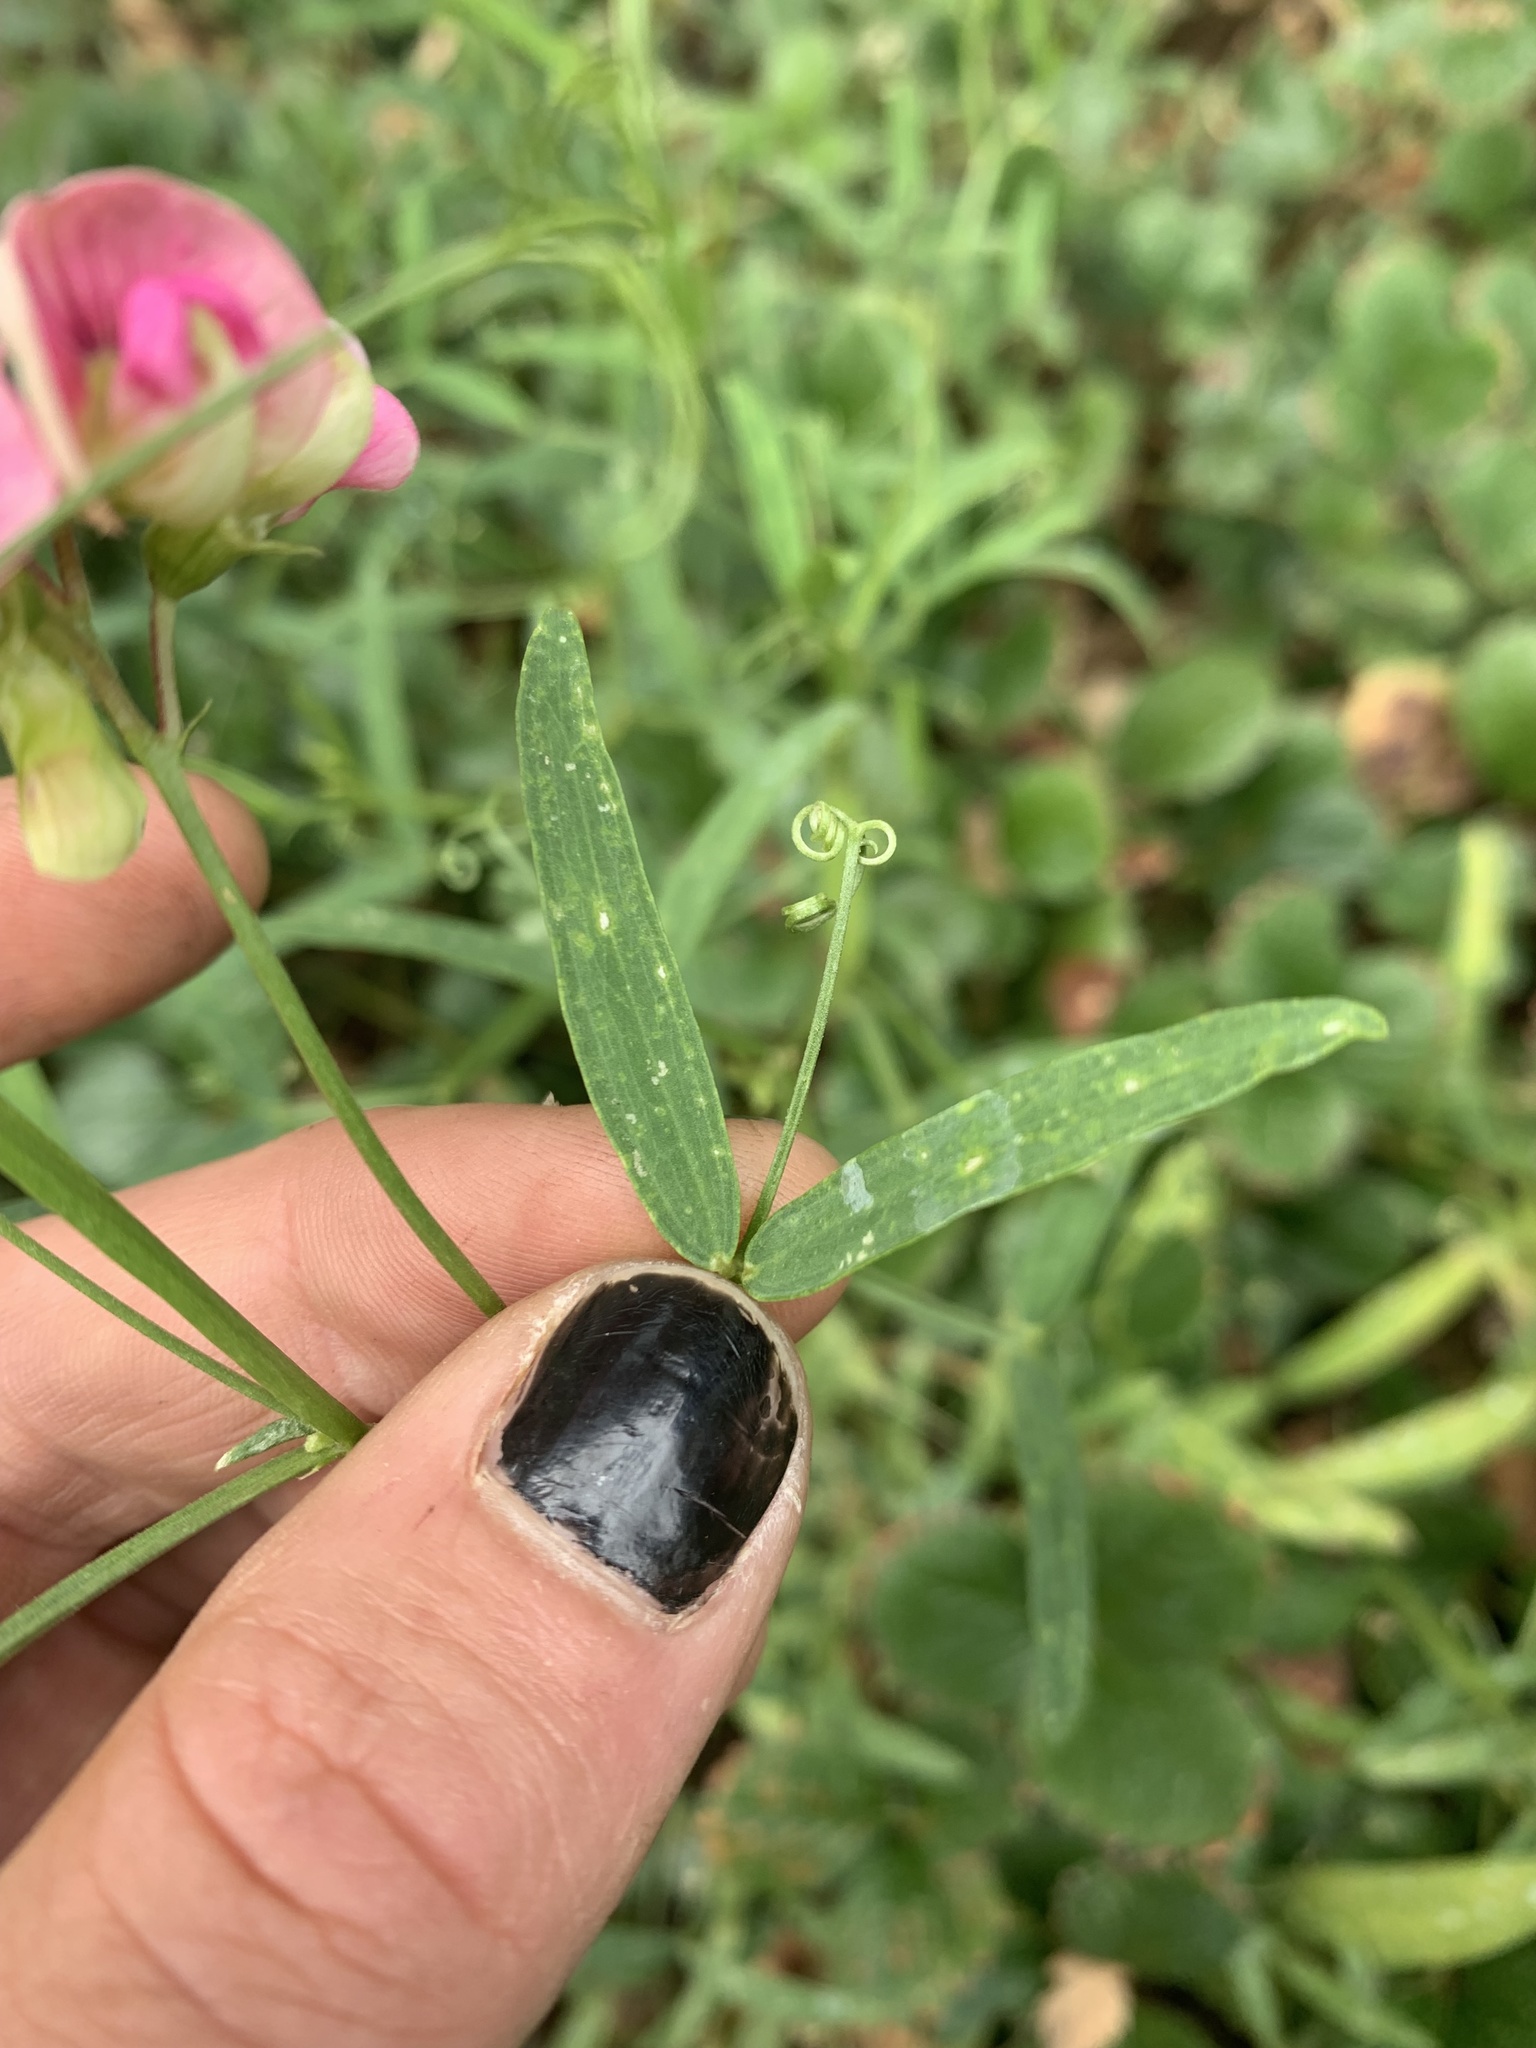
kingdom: Plantae
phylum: Tracheophyta
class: Magnoliopsida
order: Fabales
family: Fabaceae
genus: Lathyrus
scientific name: Lathyrus sylvestris
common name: Flat pea
